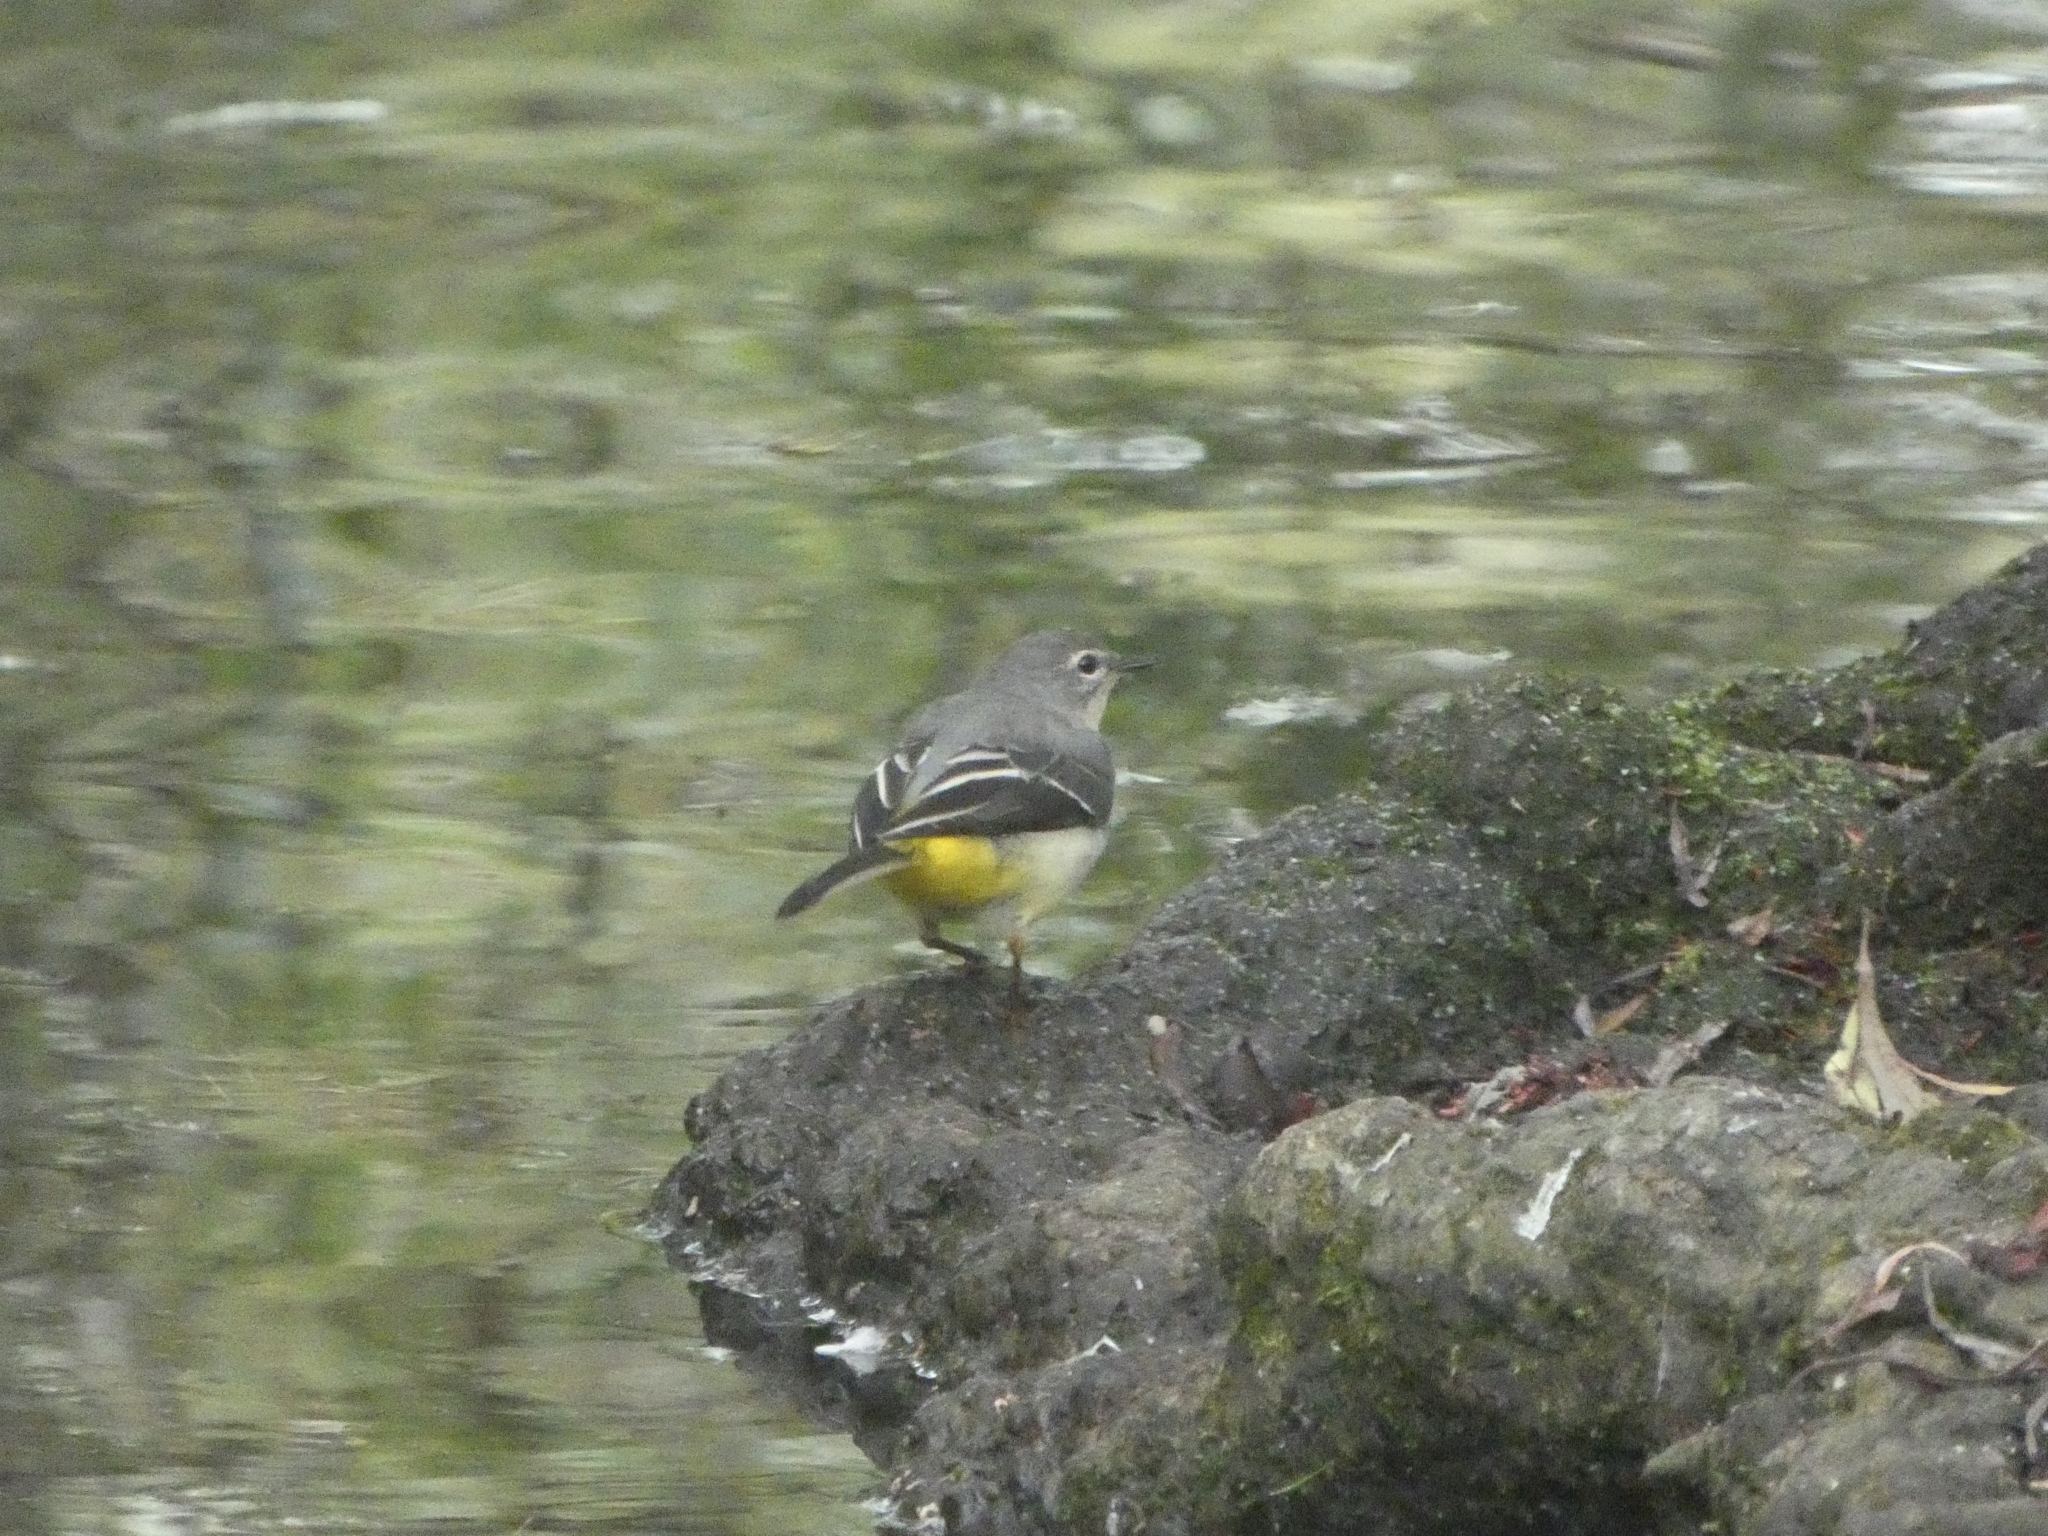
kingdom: Animalia
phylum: Chordata
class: Aves
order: Passeriformes
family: Motacillidae
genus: Motacilla
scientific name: Motacilla cinerea
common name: Grey wagtail
